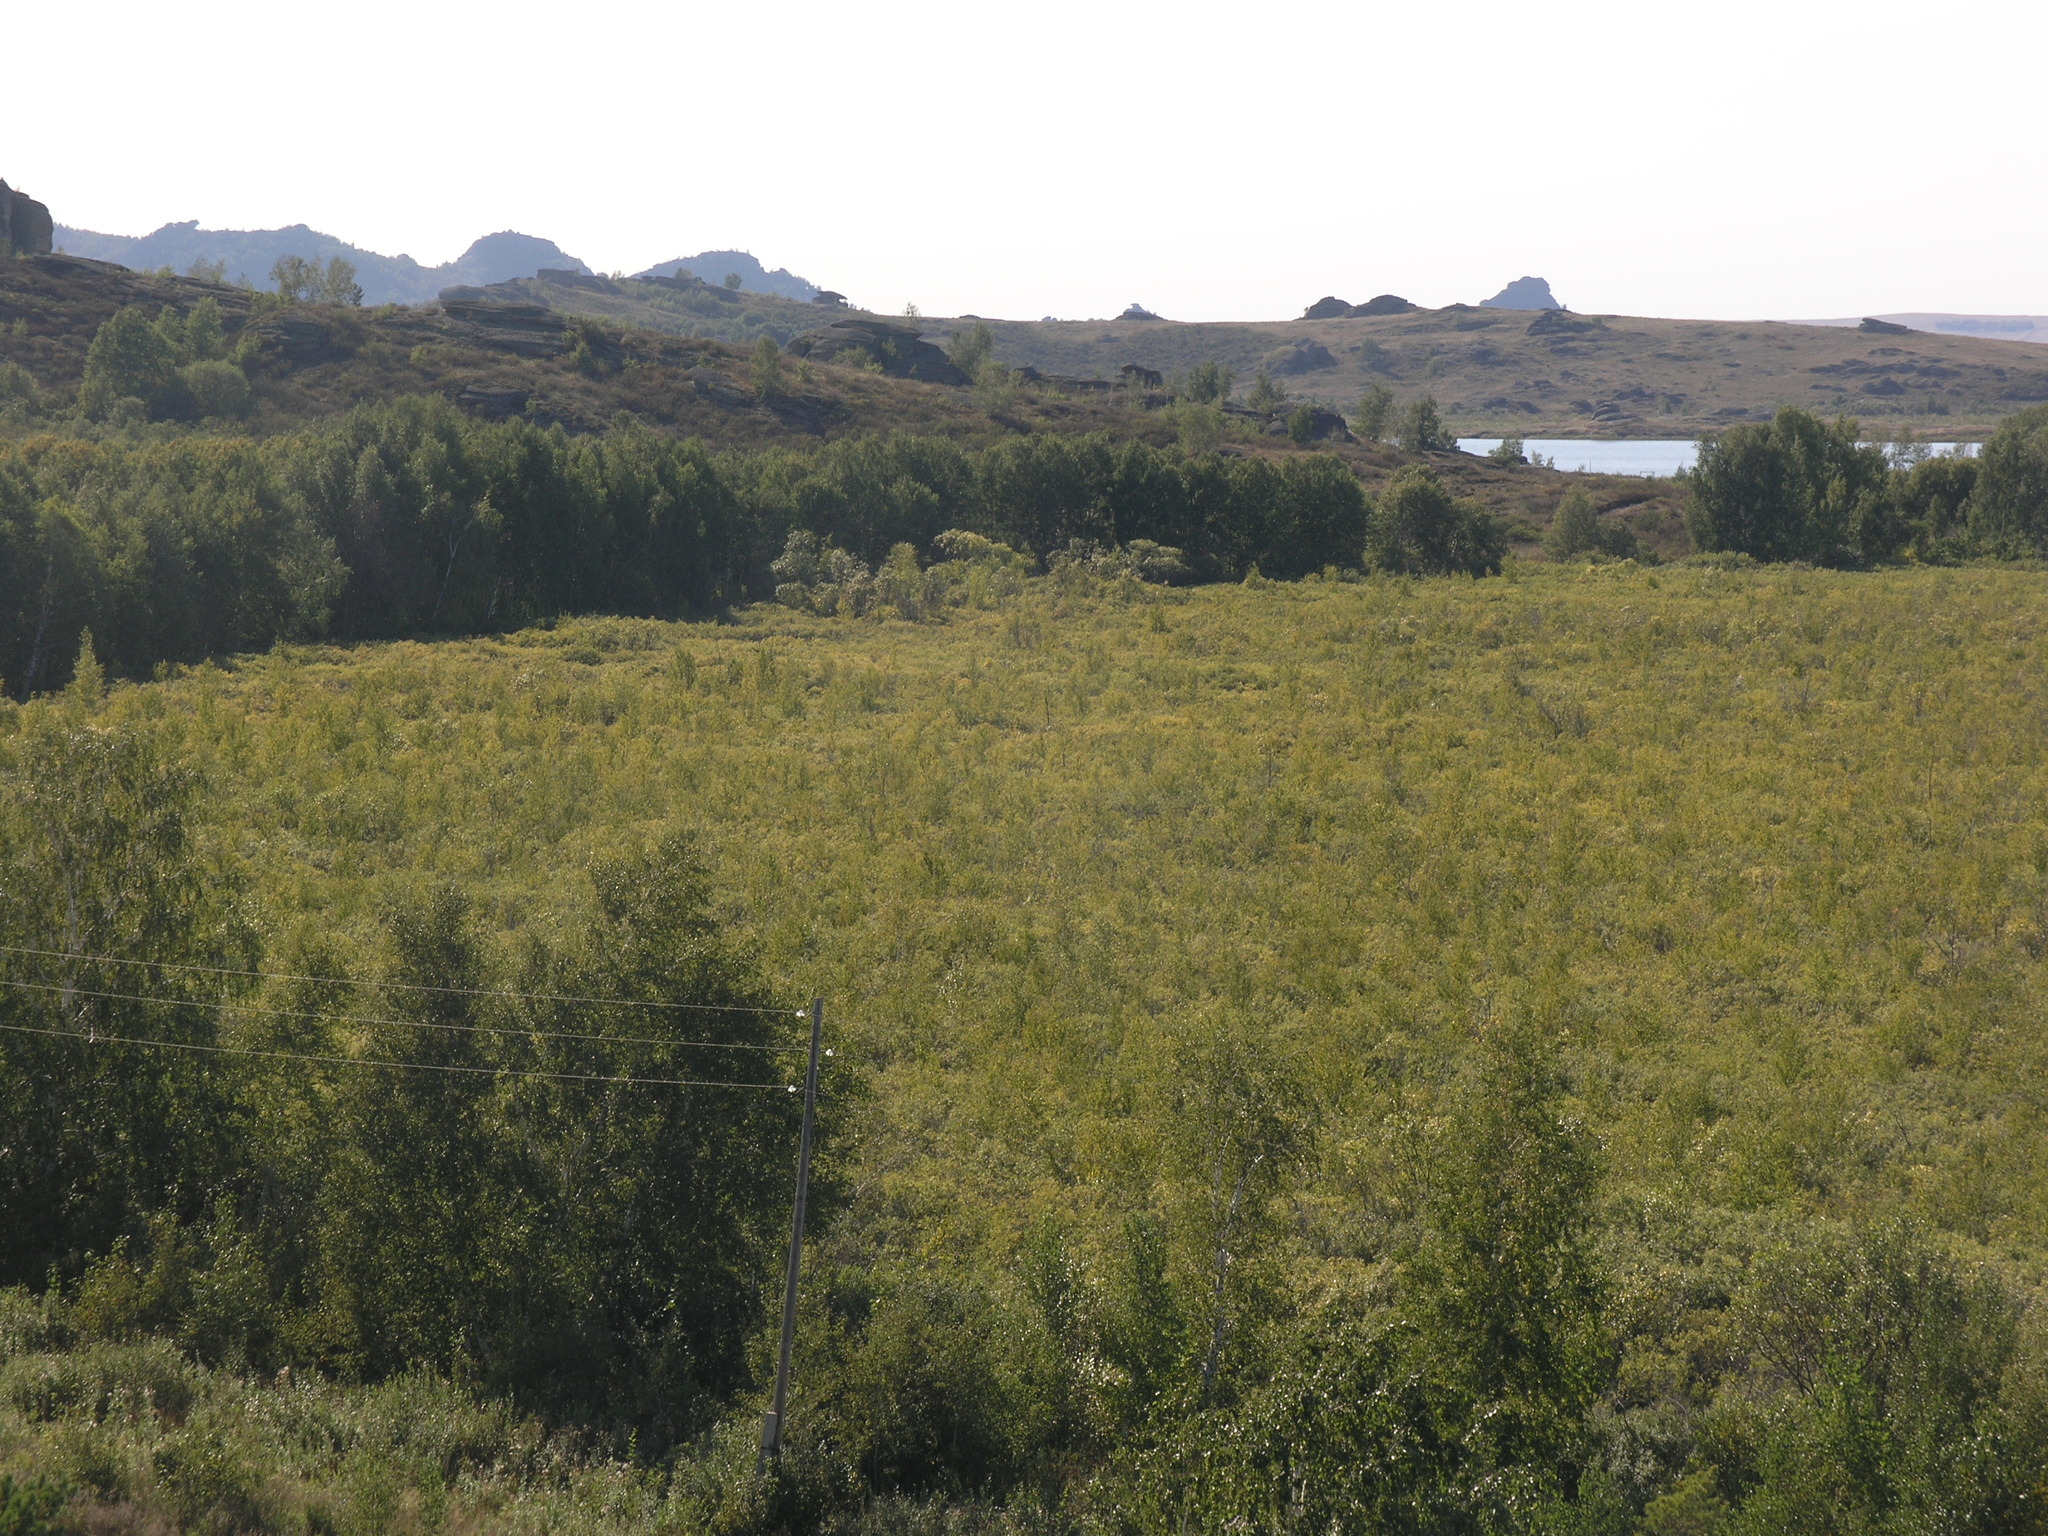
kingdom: Plantae
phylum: Tracheophyta
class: Magnoliopsida
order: Fagales
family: Betulaceae
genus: Betula
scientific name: Betula pendula
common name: Silver birch
